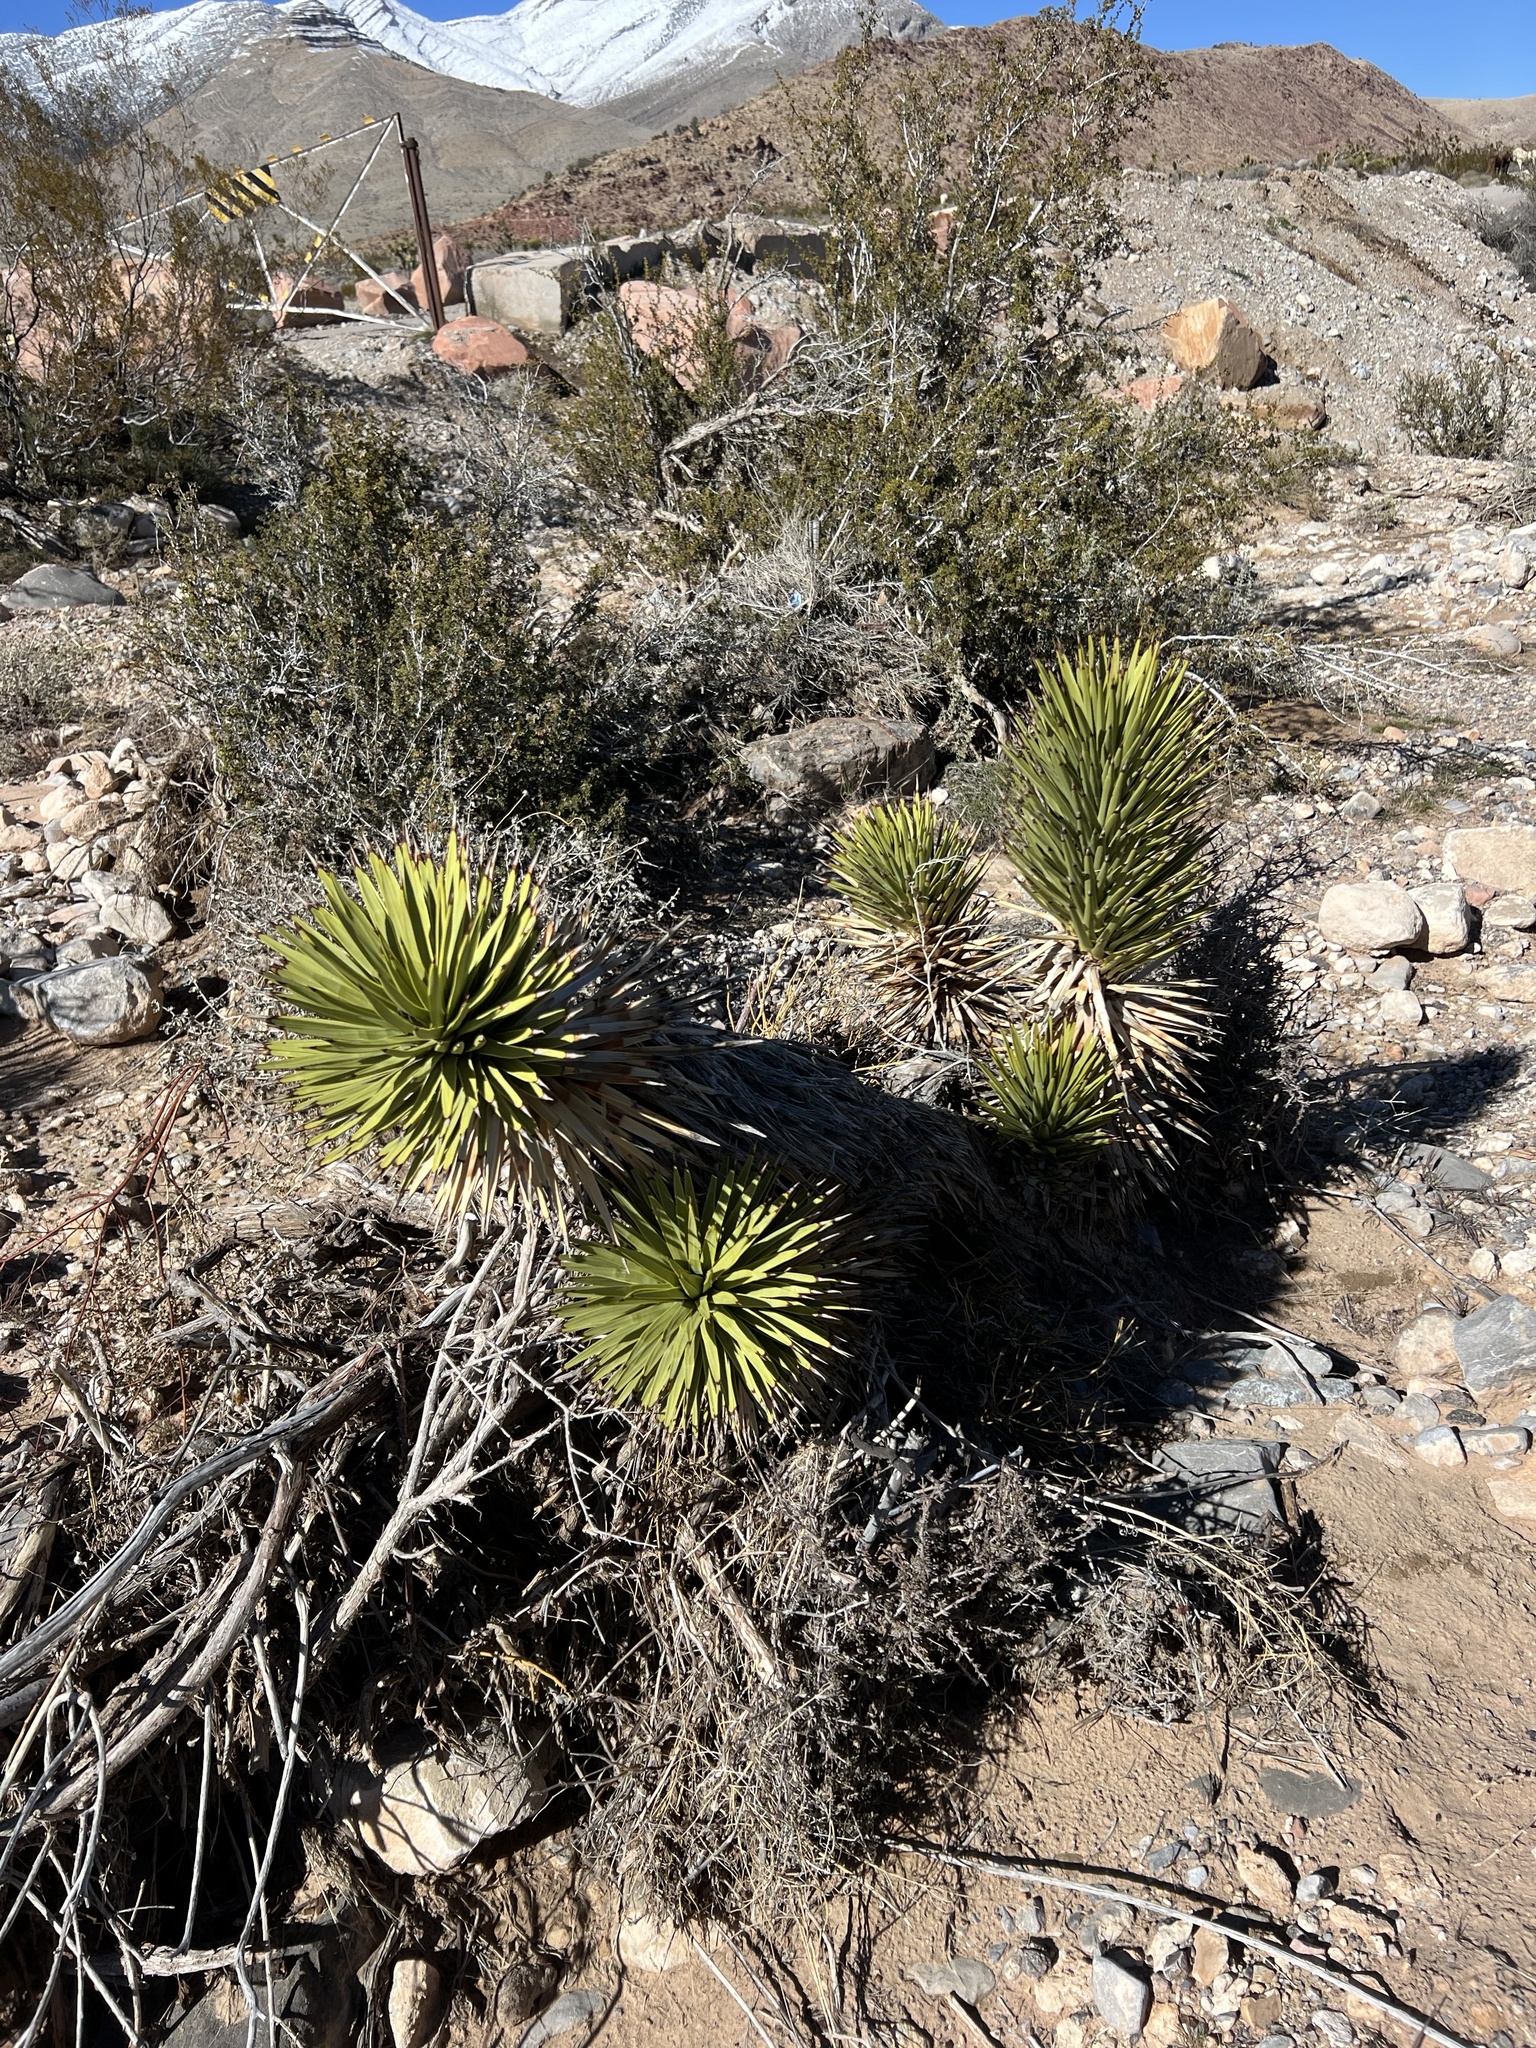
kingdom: Plantae
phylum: Tracheophyta
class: Liliopsida
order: Asparagales
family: Asparagaceae
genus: Yucca
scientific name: Yucca brevifolia
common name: Joshua tree
